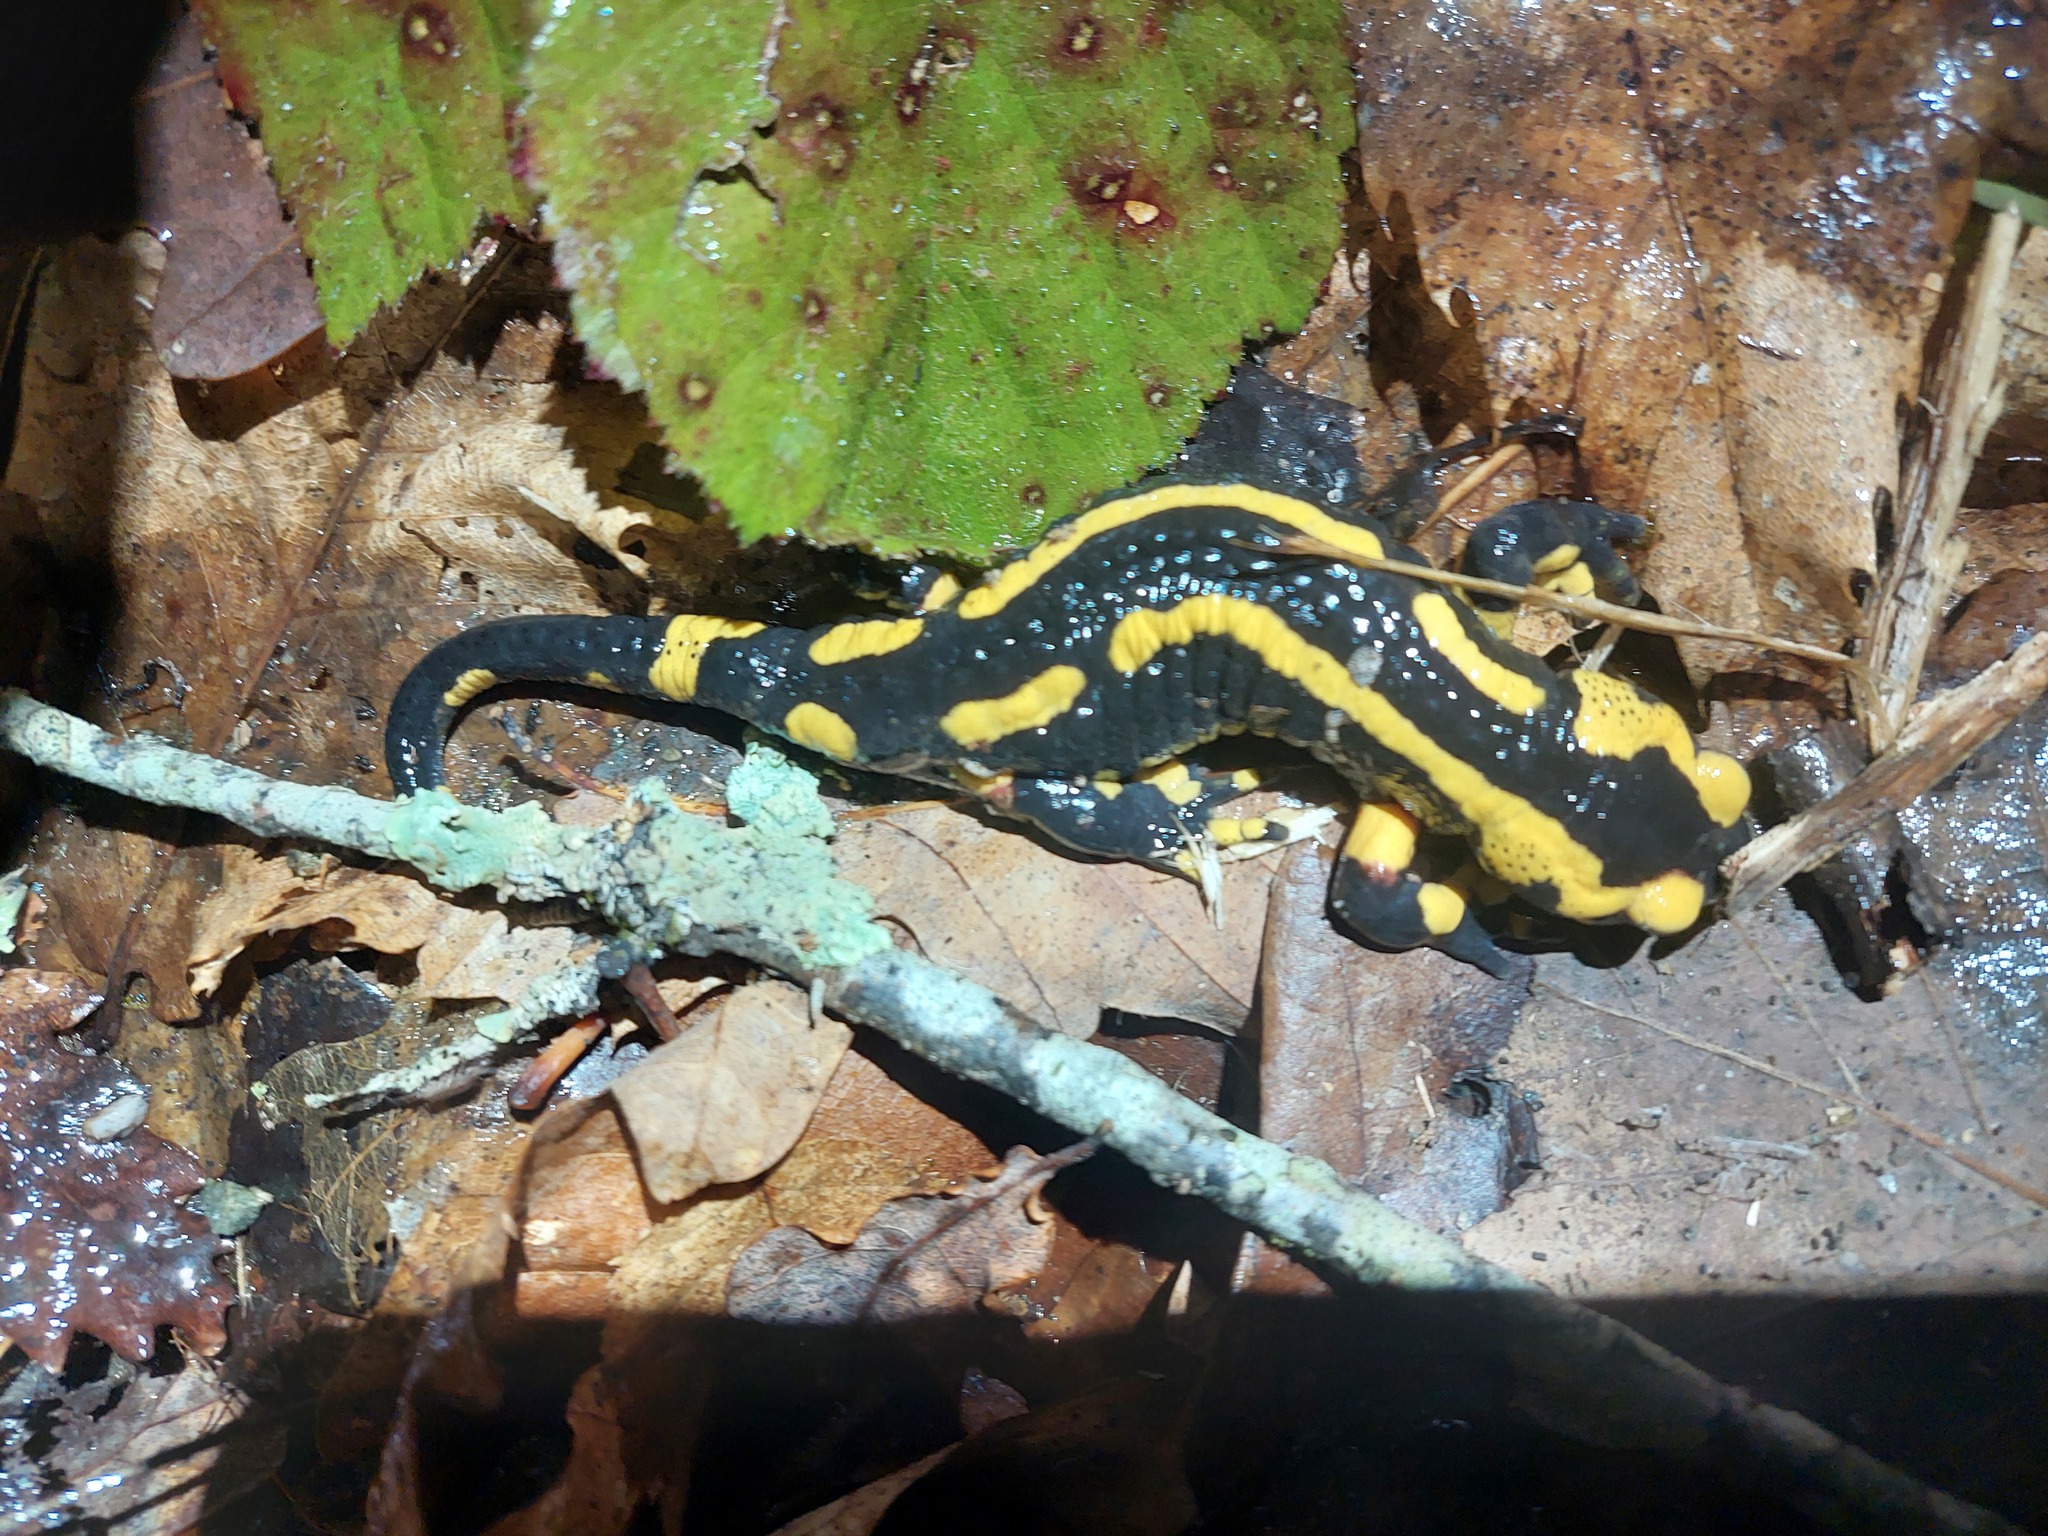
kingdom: Animalia
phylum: Chordata
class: Amphibia
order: Caudata
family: Salamandridae
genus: Salamandra
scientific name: Salamandra salamandra
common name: Fire salamander
